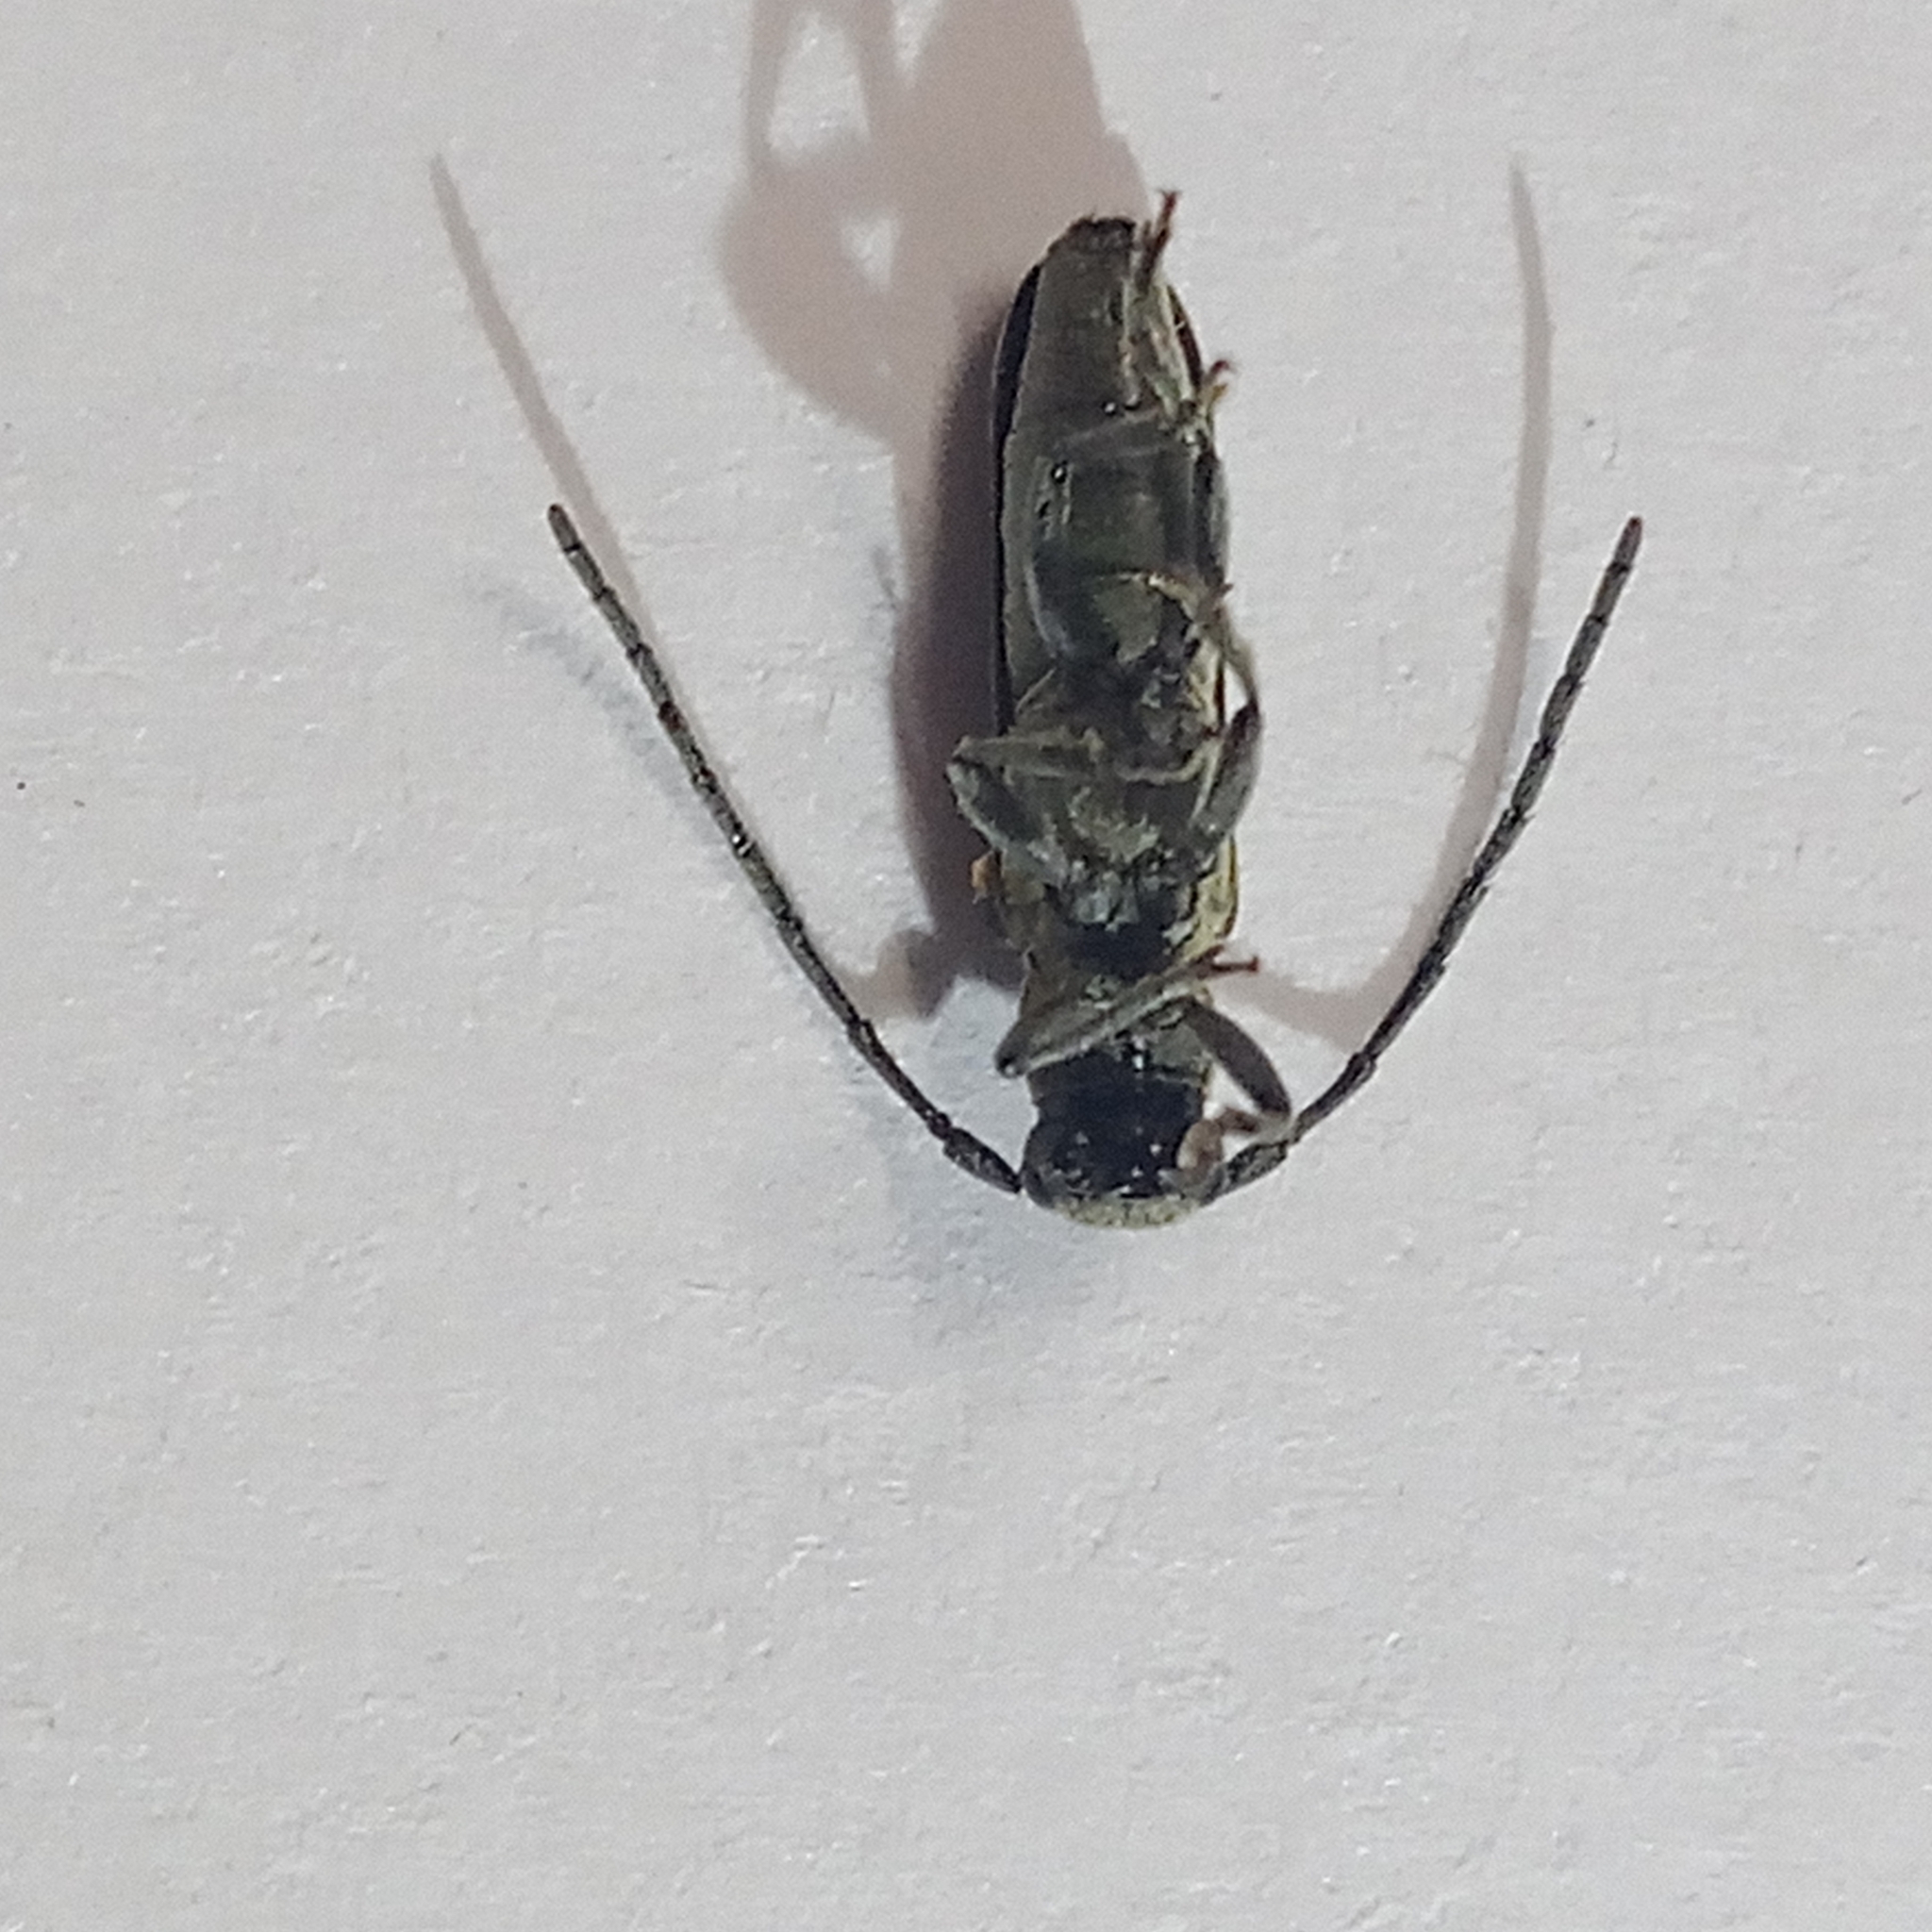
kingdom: Animalia
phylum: Arthropoda
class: Insecta
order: Coleoptera
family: Cerambycidae
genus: Phytoecia
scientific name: Phytoecia nigricornis
